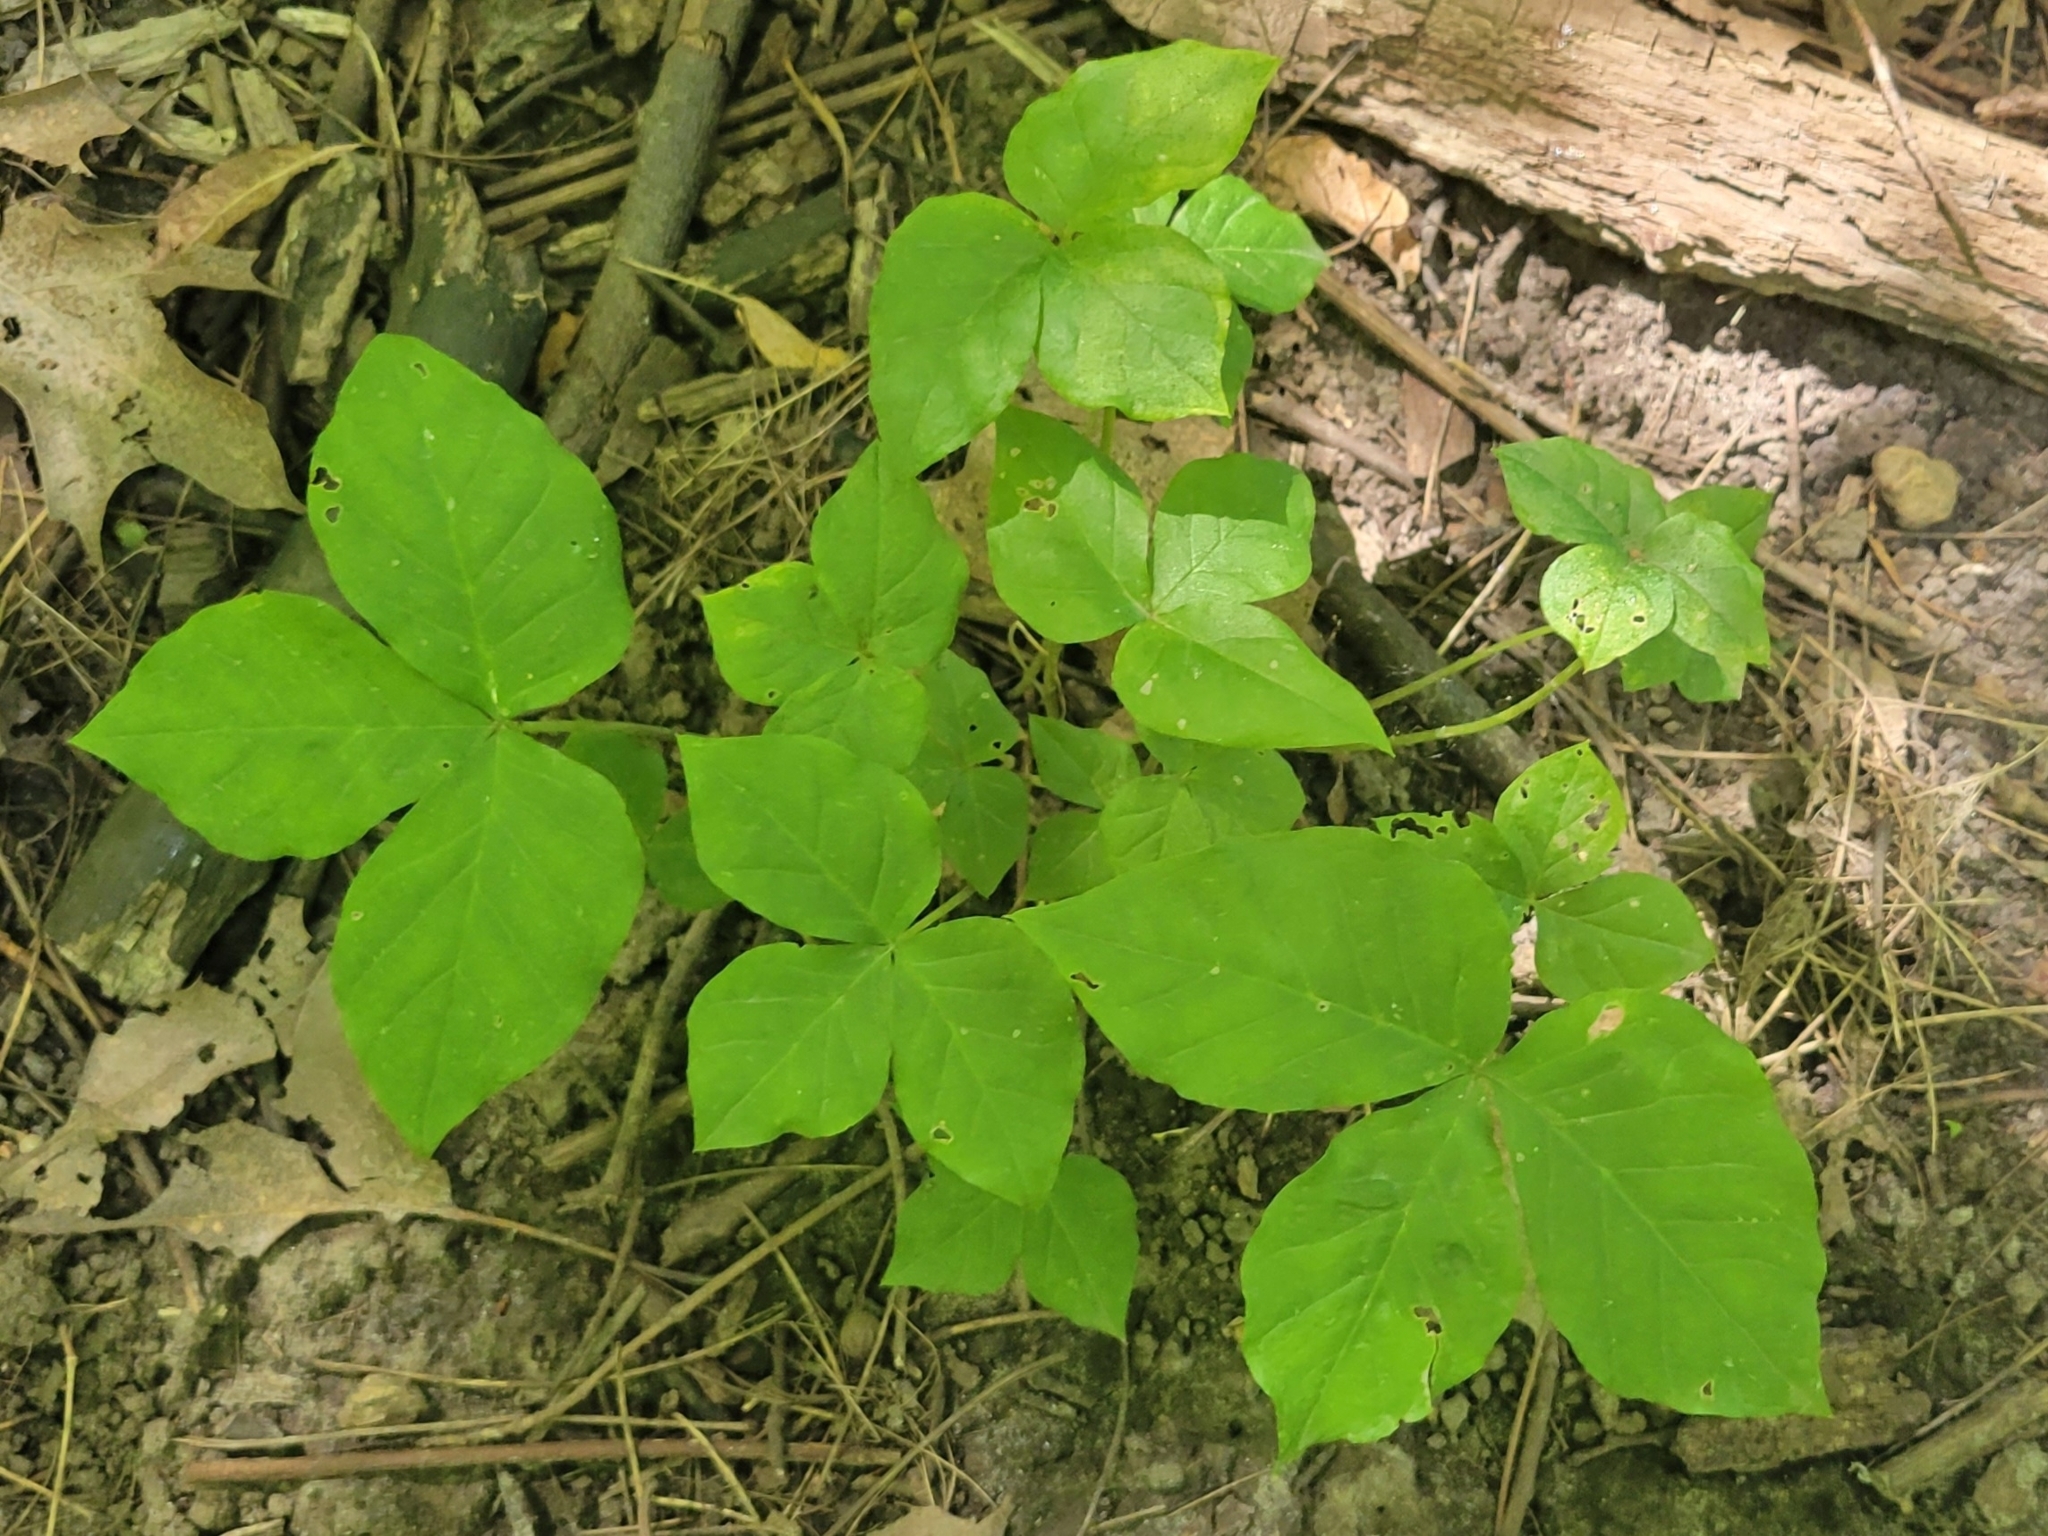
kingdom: Plantae
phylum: Tracheophyta
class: Liliopsida
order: Alismatales
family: Araceae
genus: Arisaema
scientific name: Arisaema triphyllum
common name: Jack-in-the-pulpit
